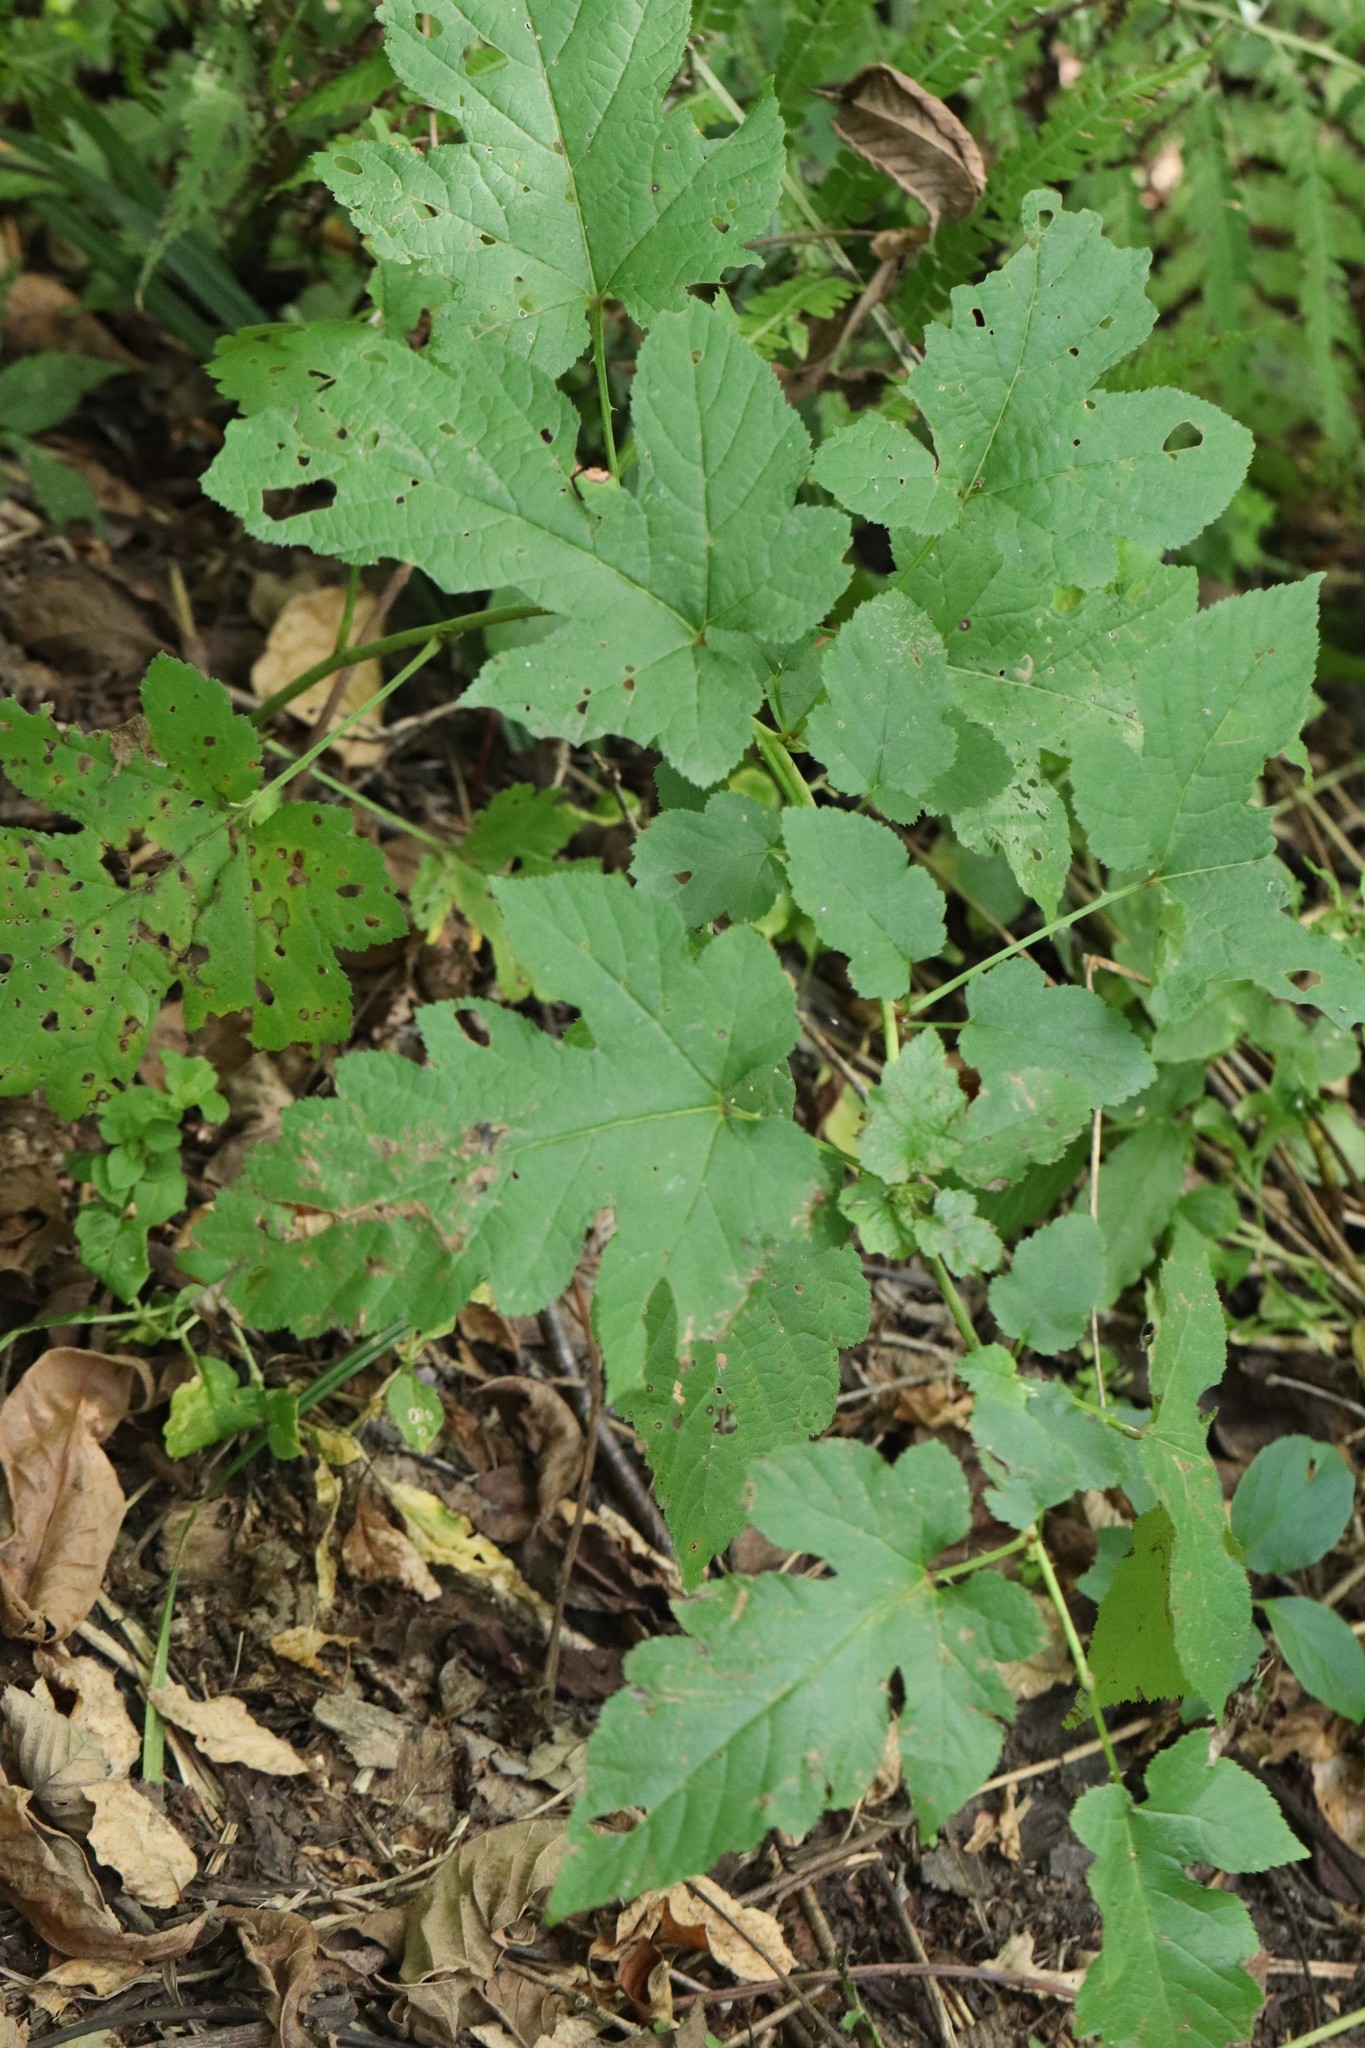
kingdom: Plantae
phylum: Tracheophyta
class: Magnoliopsida
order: Rosales
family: Rosaceae
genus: Rubus
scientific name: Rubus crataegifolius
